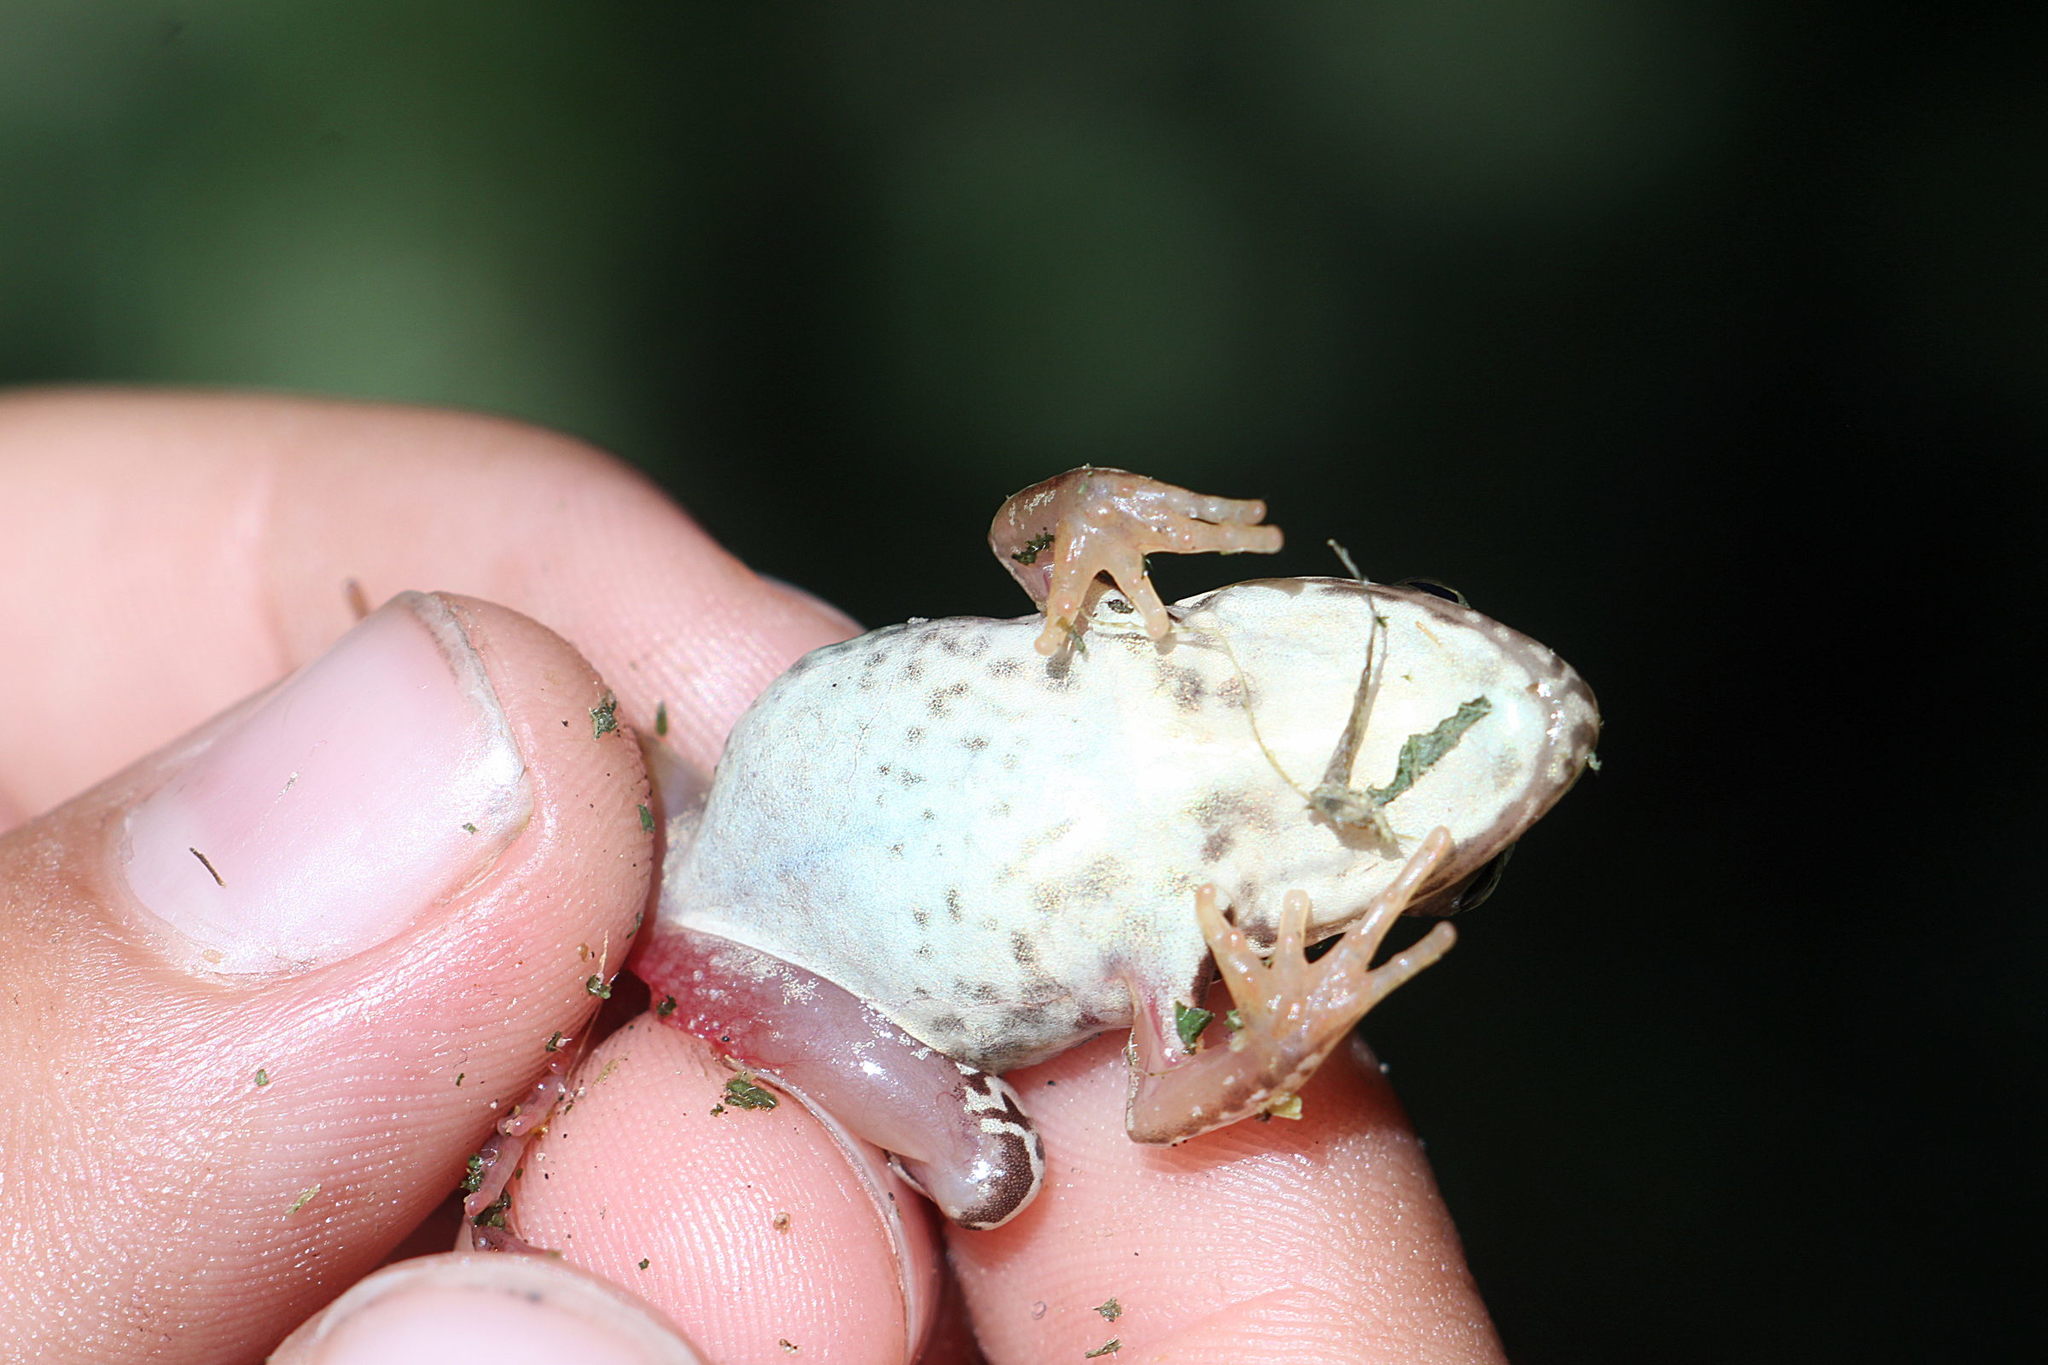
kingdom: Animalia
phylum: Chordata
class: Amphibia
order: Anura
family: Ranidae
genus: Rana
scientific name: Rana temporaria
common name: Common frog
